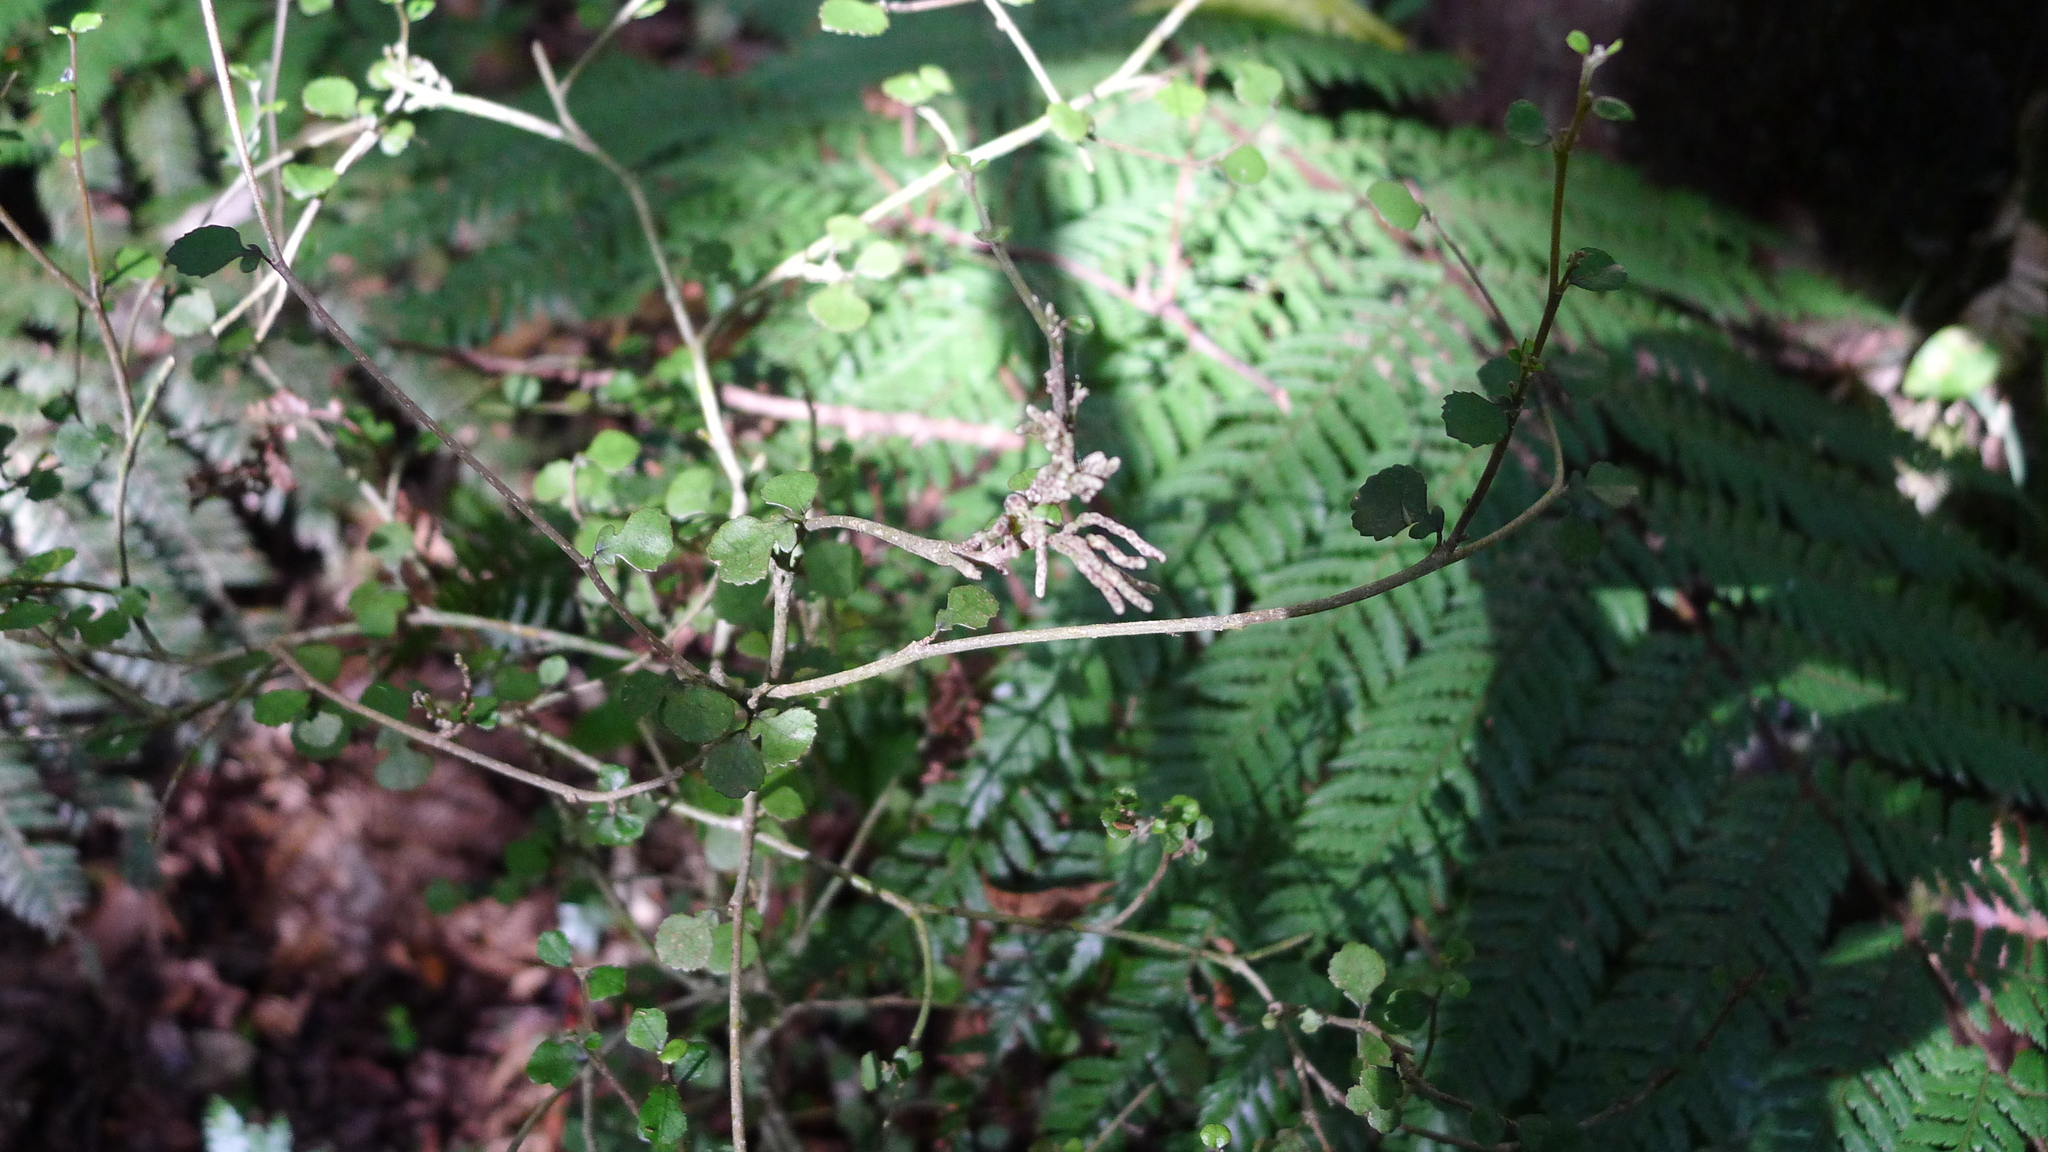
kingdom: Animalia
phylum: Arthropoda
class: Arachnida
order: Trombidiformes
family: Eriophyidae
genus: Eriophyes
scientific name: Eriophyes
